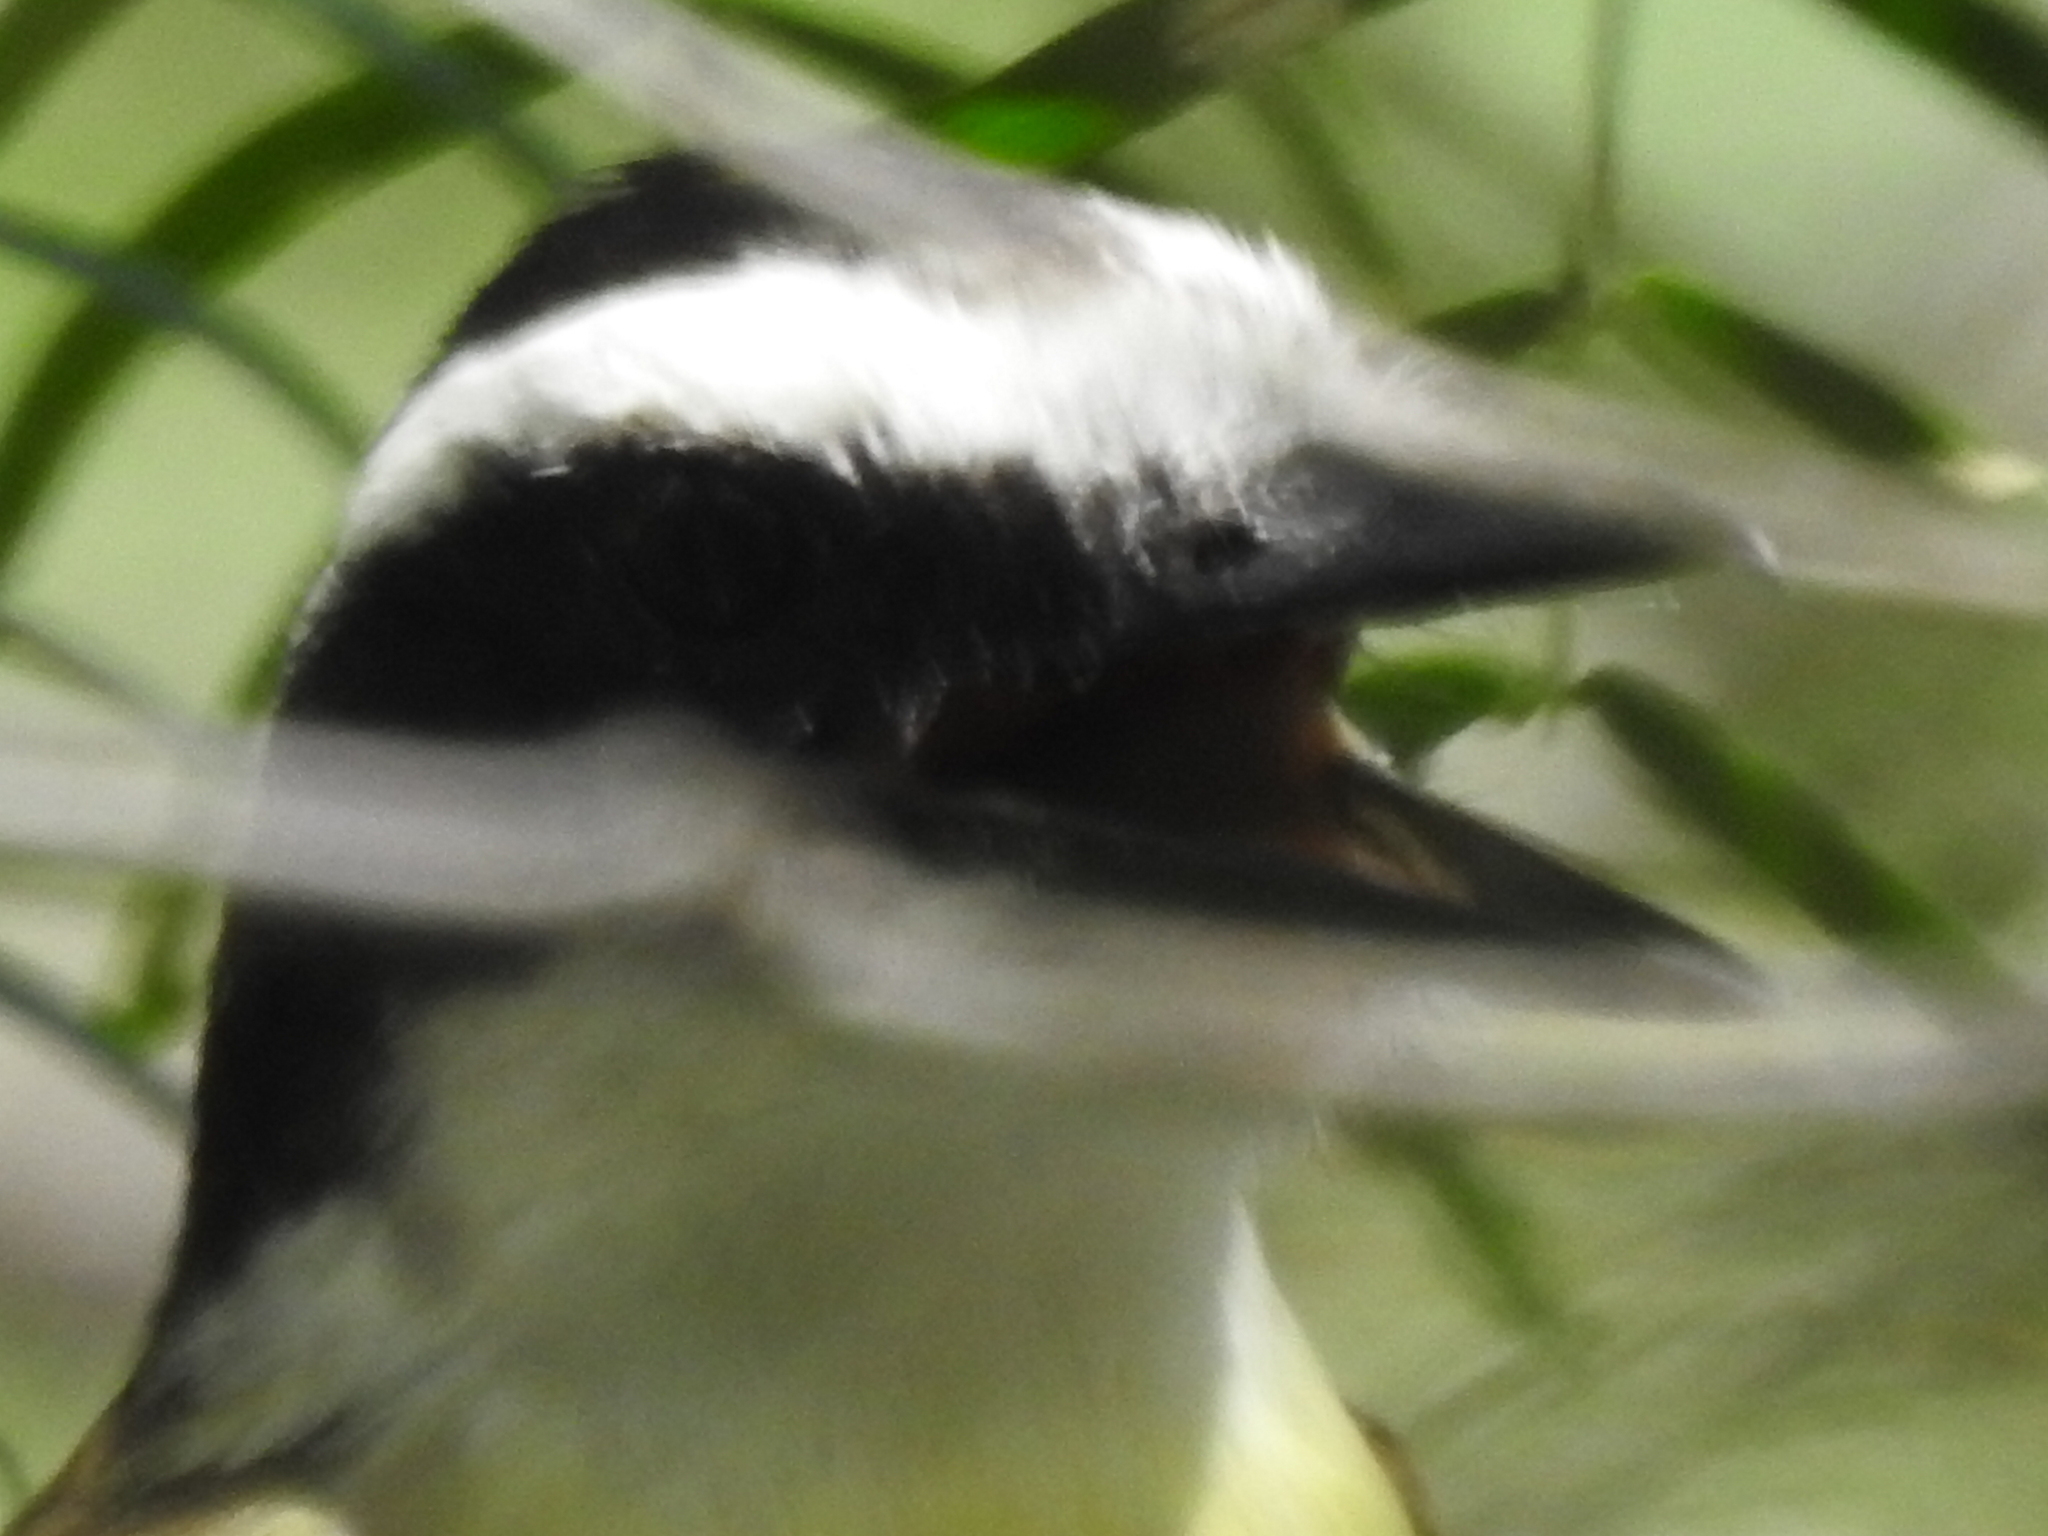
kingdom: Animalia
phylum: Chordata
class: Aves
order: Passeriformes
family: Tyrannidae
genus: Pitangus
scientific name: Pitangus sulphuratus
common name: Great kiskadee
